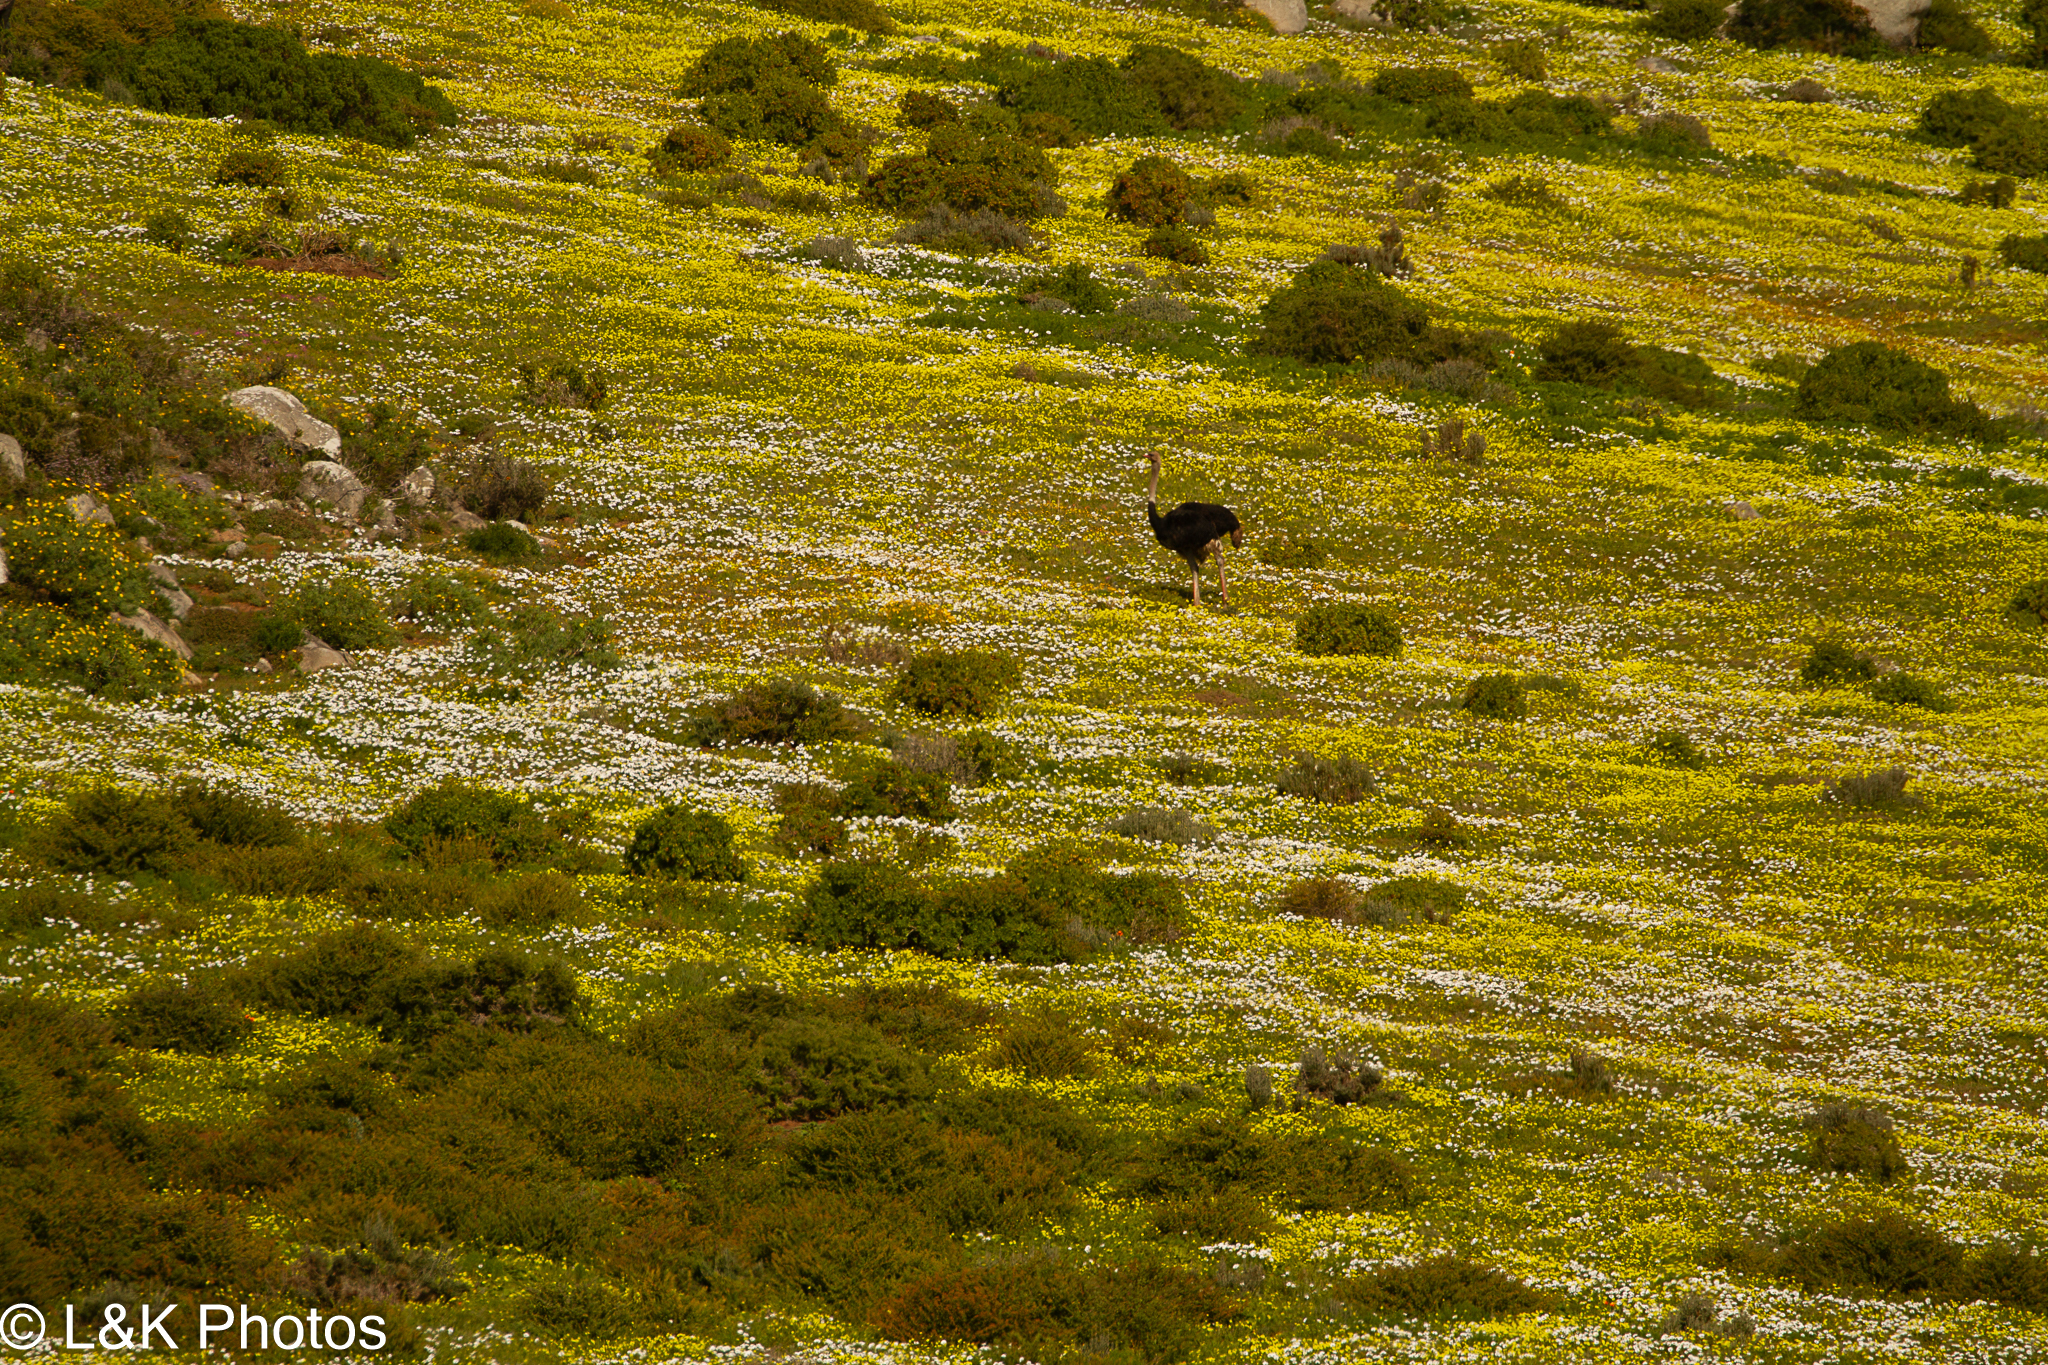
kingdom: Animalia
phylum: Chordata
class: Aves
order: Struthioniformes
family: Struthionidae
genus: Struthio
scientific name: Struthio camelus
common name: Common ostrich
